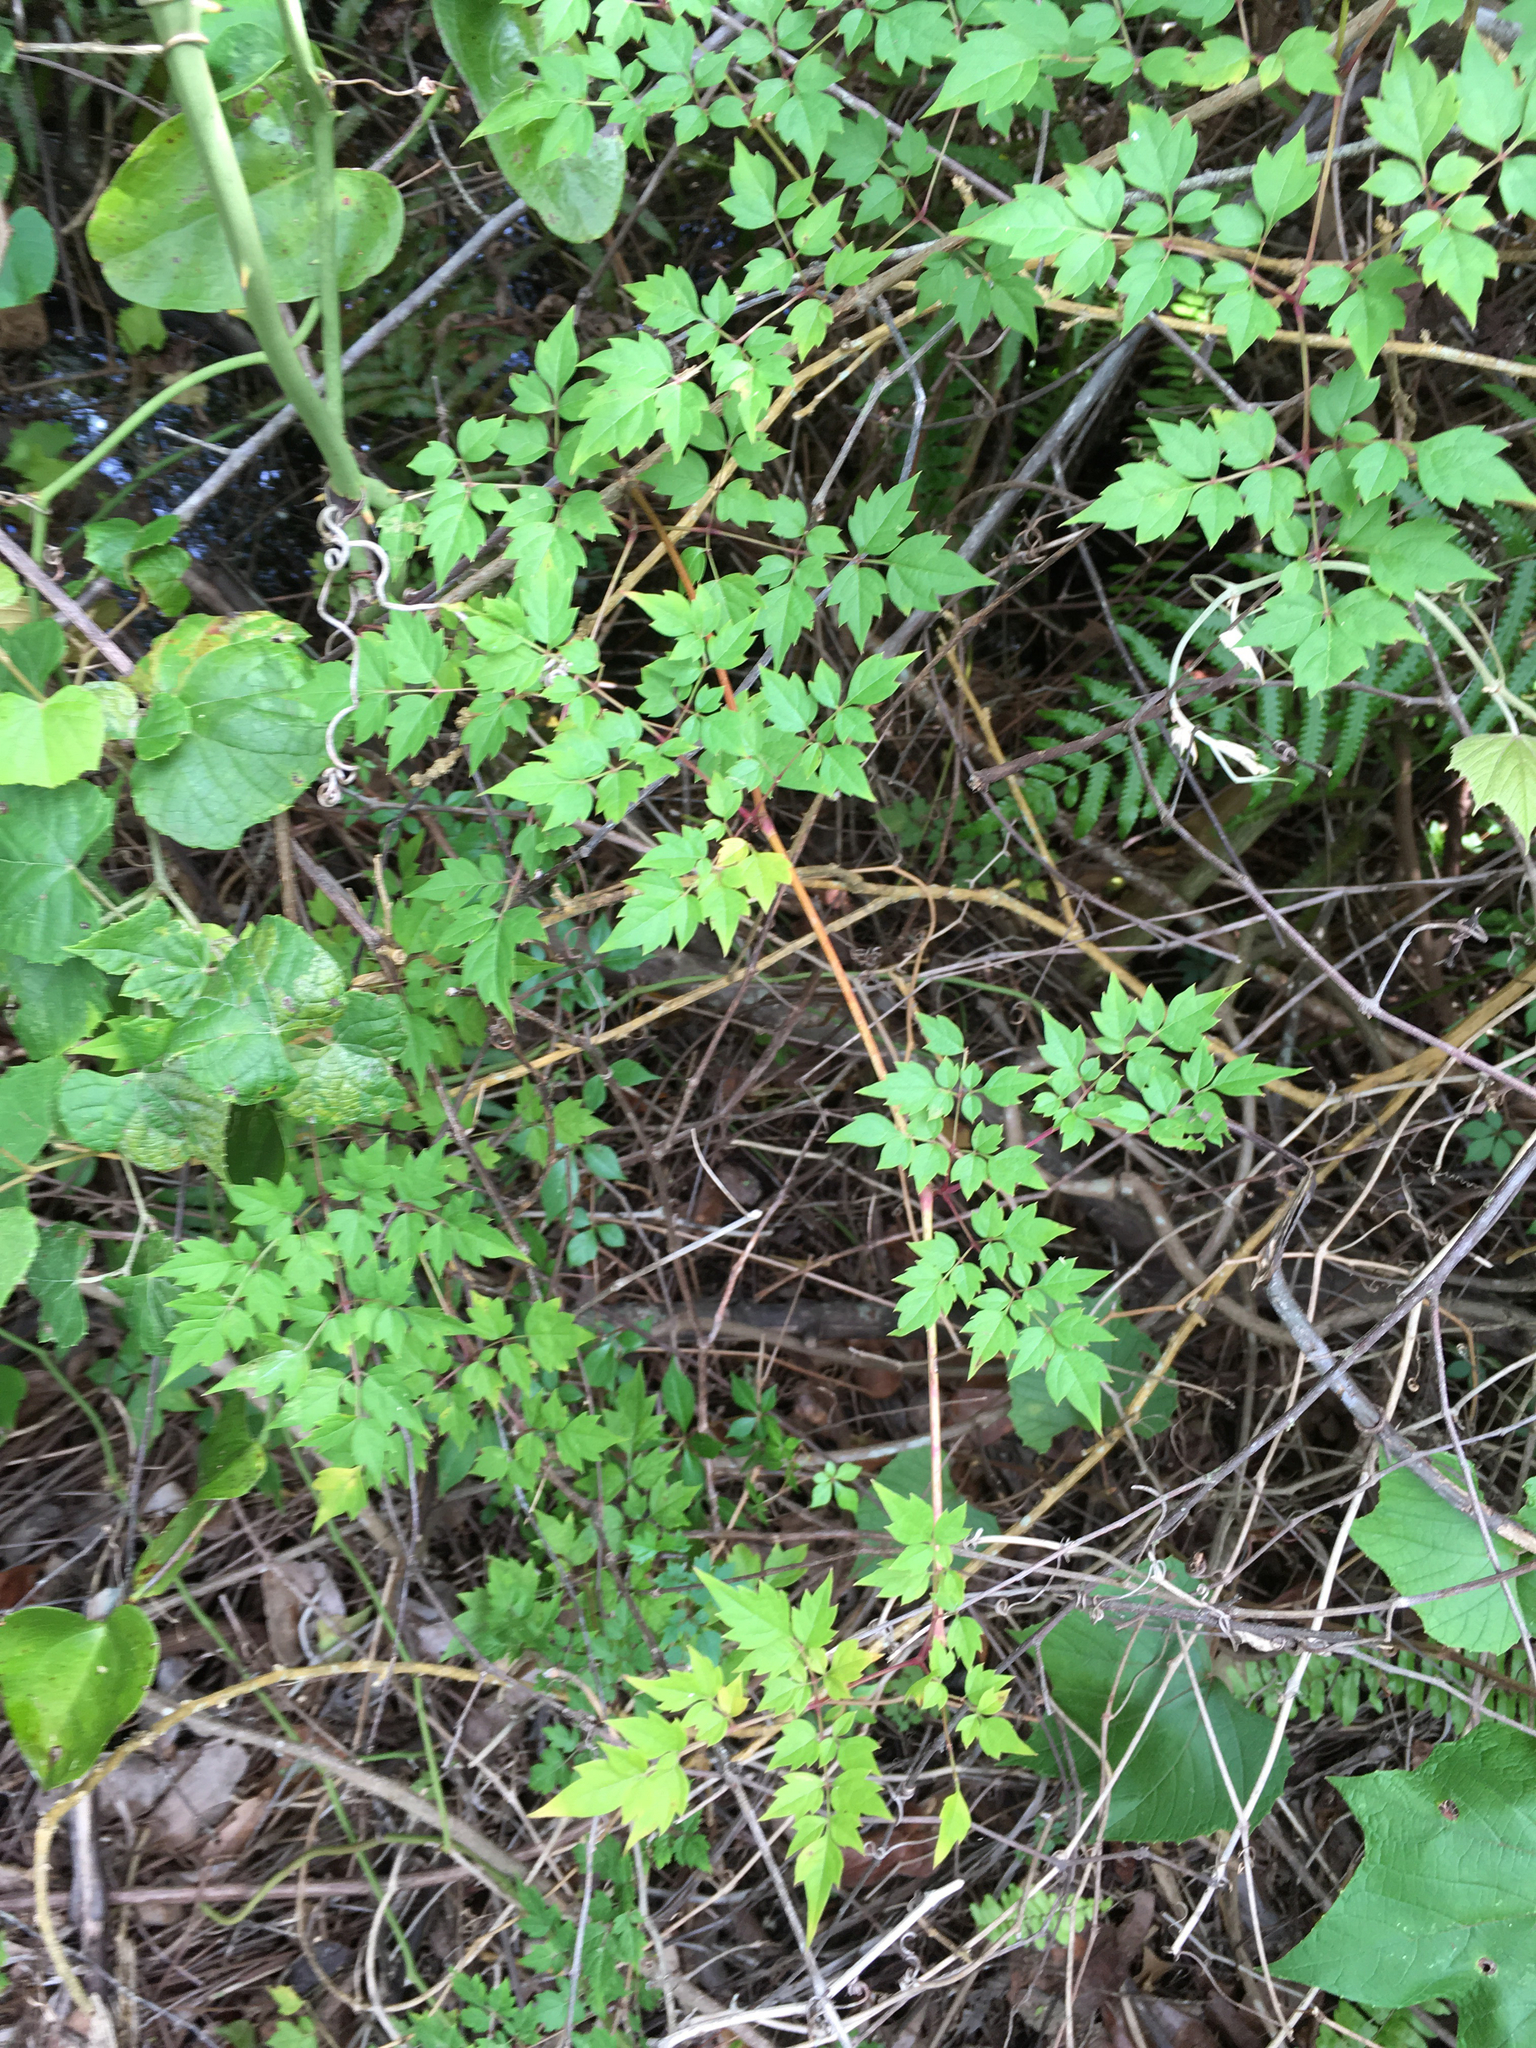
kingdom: Plantae
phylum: Tracheophyta
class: Magnoliopsida
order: Vitales
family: Vitaceae
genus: Nekemias
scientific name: Nekemias arborea
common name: Peppervine
